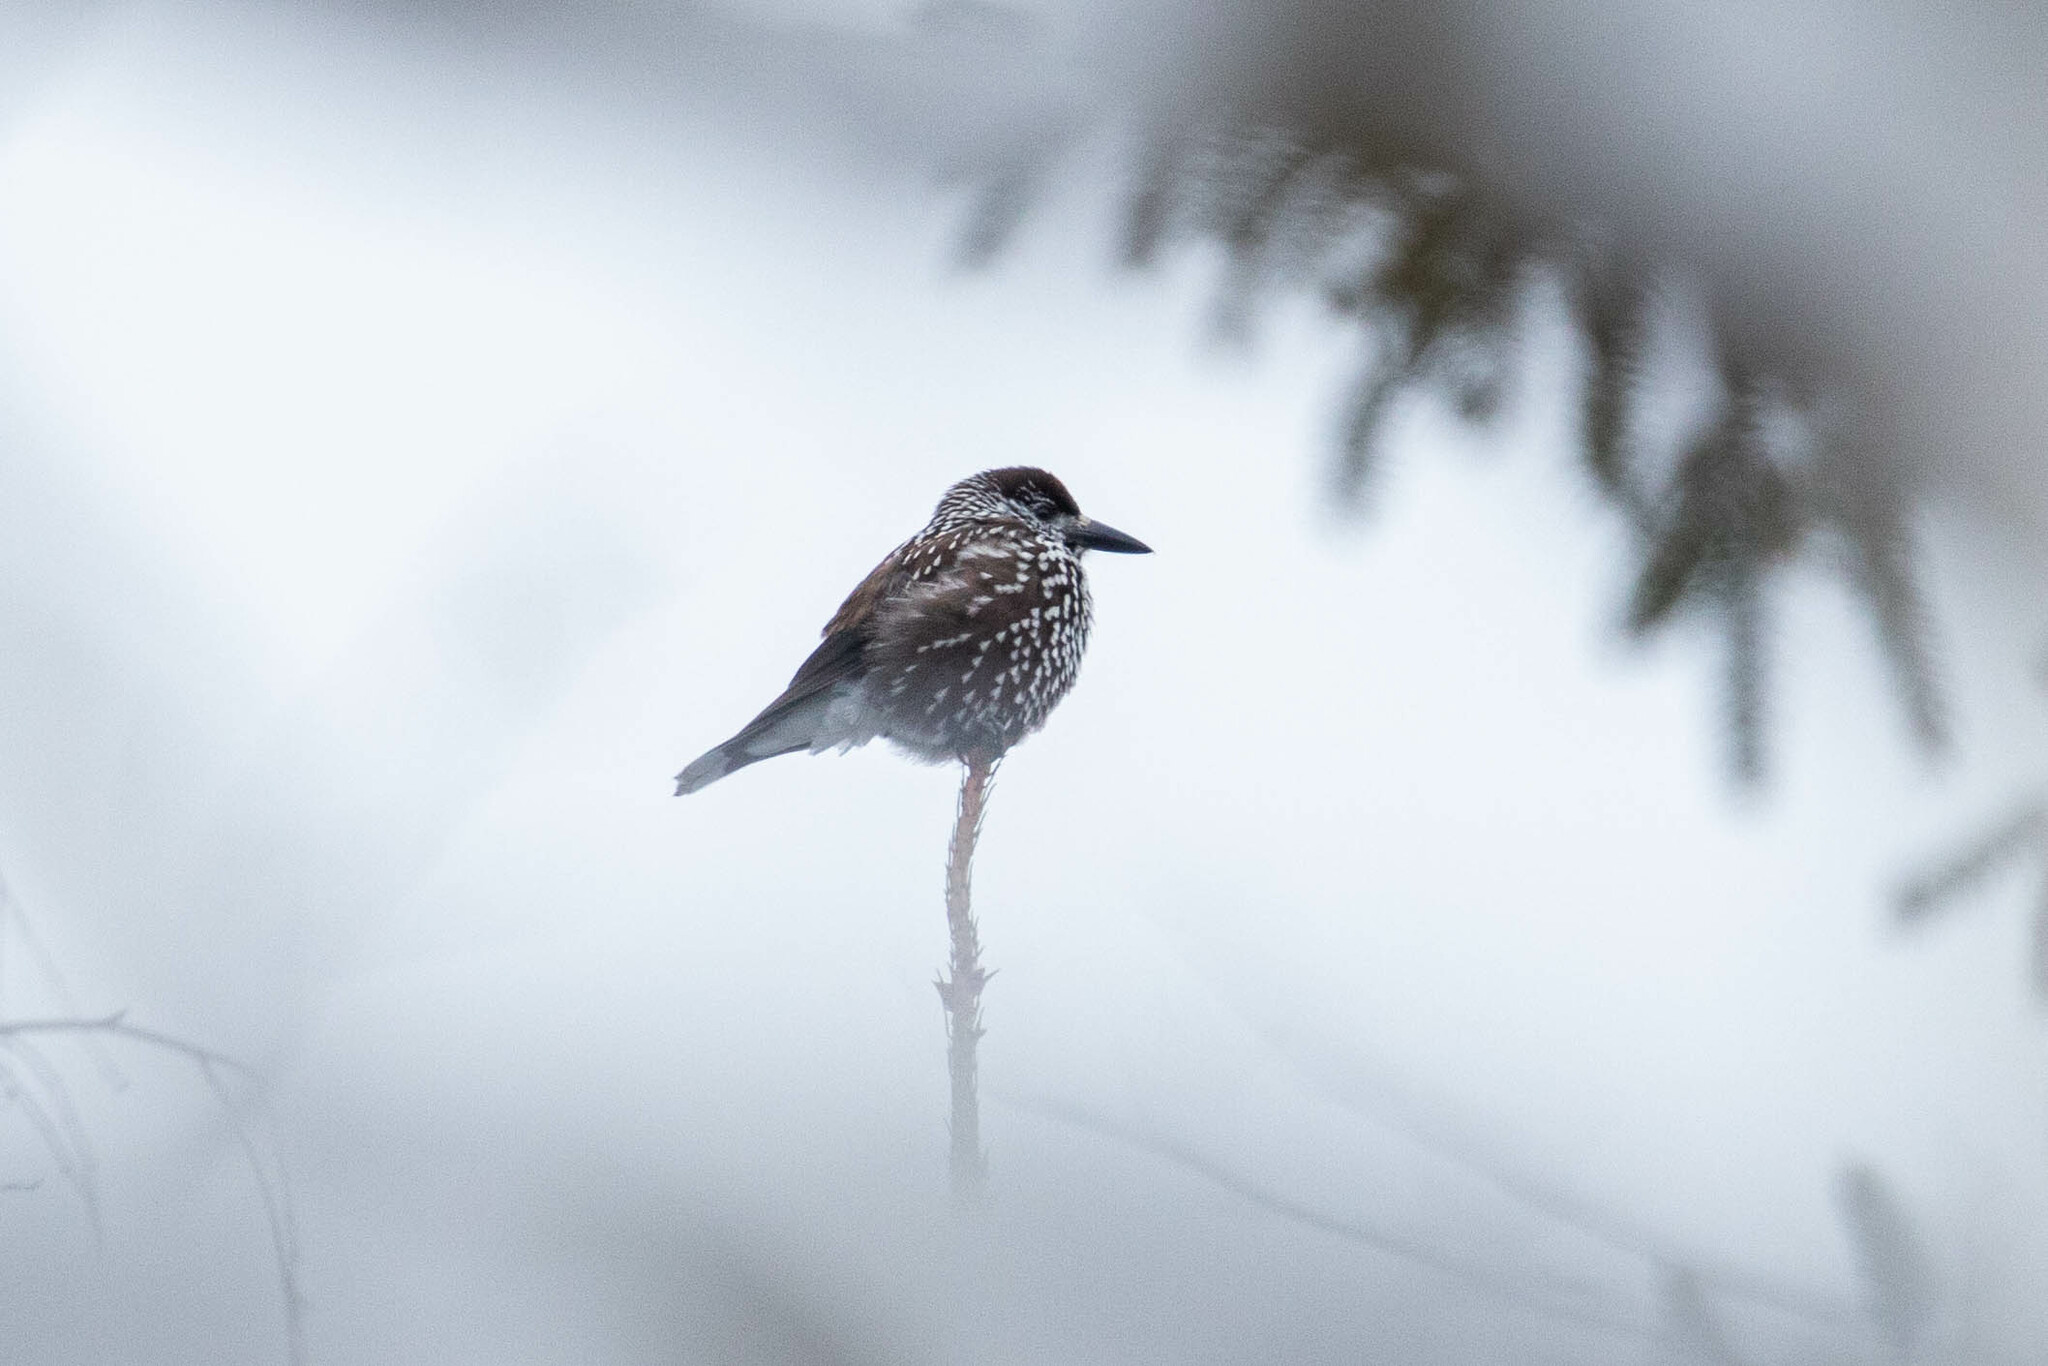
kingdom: Animalia
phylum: Chordata
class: Aves
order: Passeriformes
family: Corvidae
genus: Nucifraga
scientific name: Nucifraga caryocatactes
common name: Spotted nutcracker
